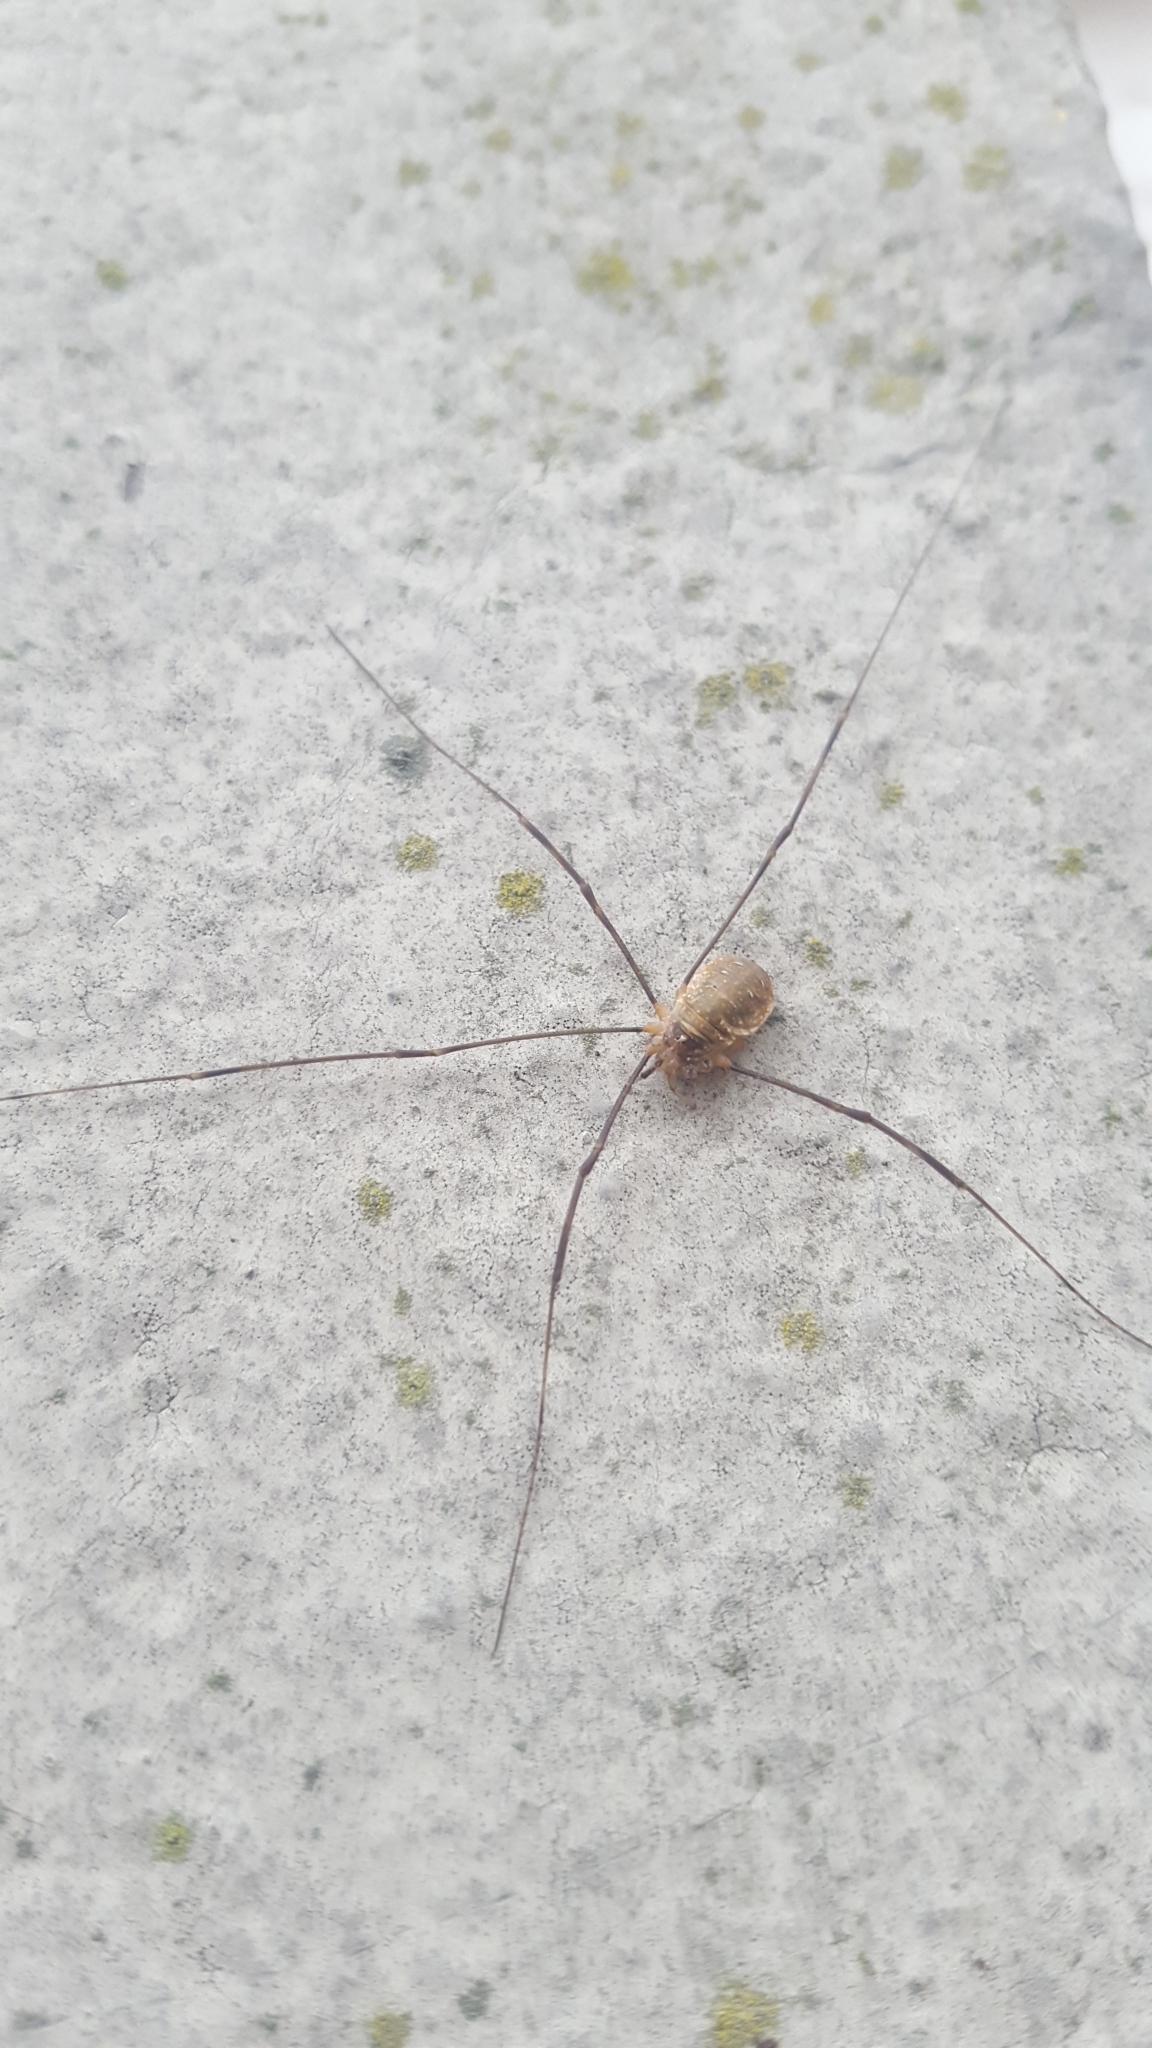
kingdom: Animalia
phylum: Arthropoda
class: Arachnida
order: Opiliones
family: Phalangiidae
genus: Opilio
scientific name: Opilio canestrinii
